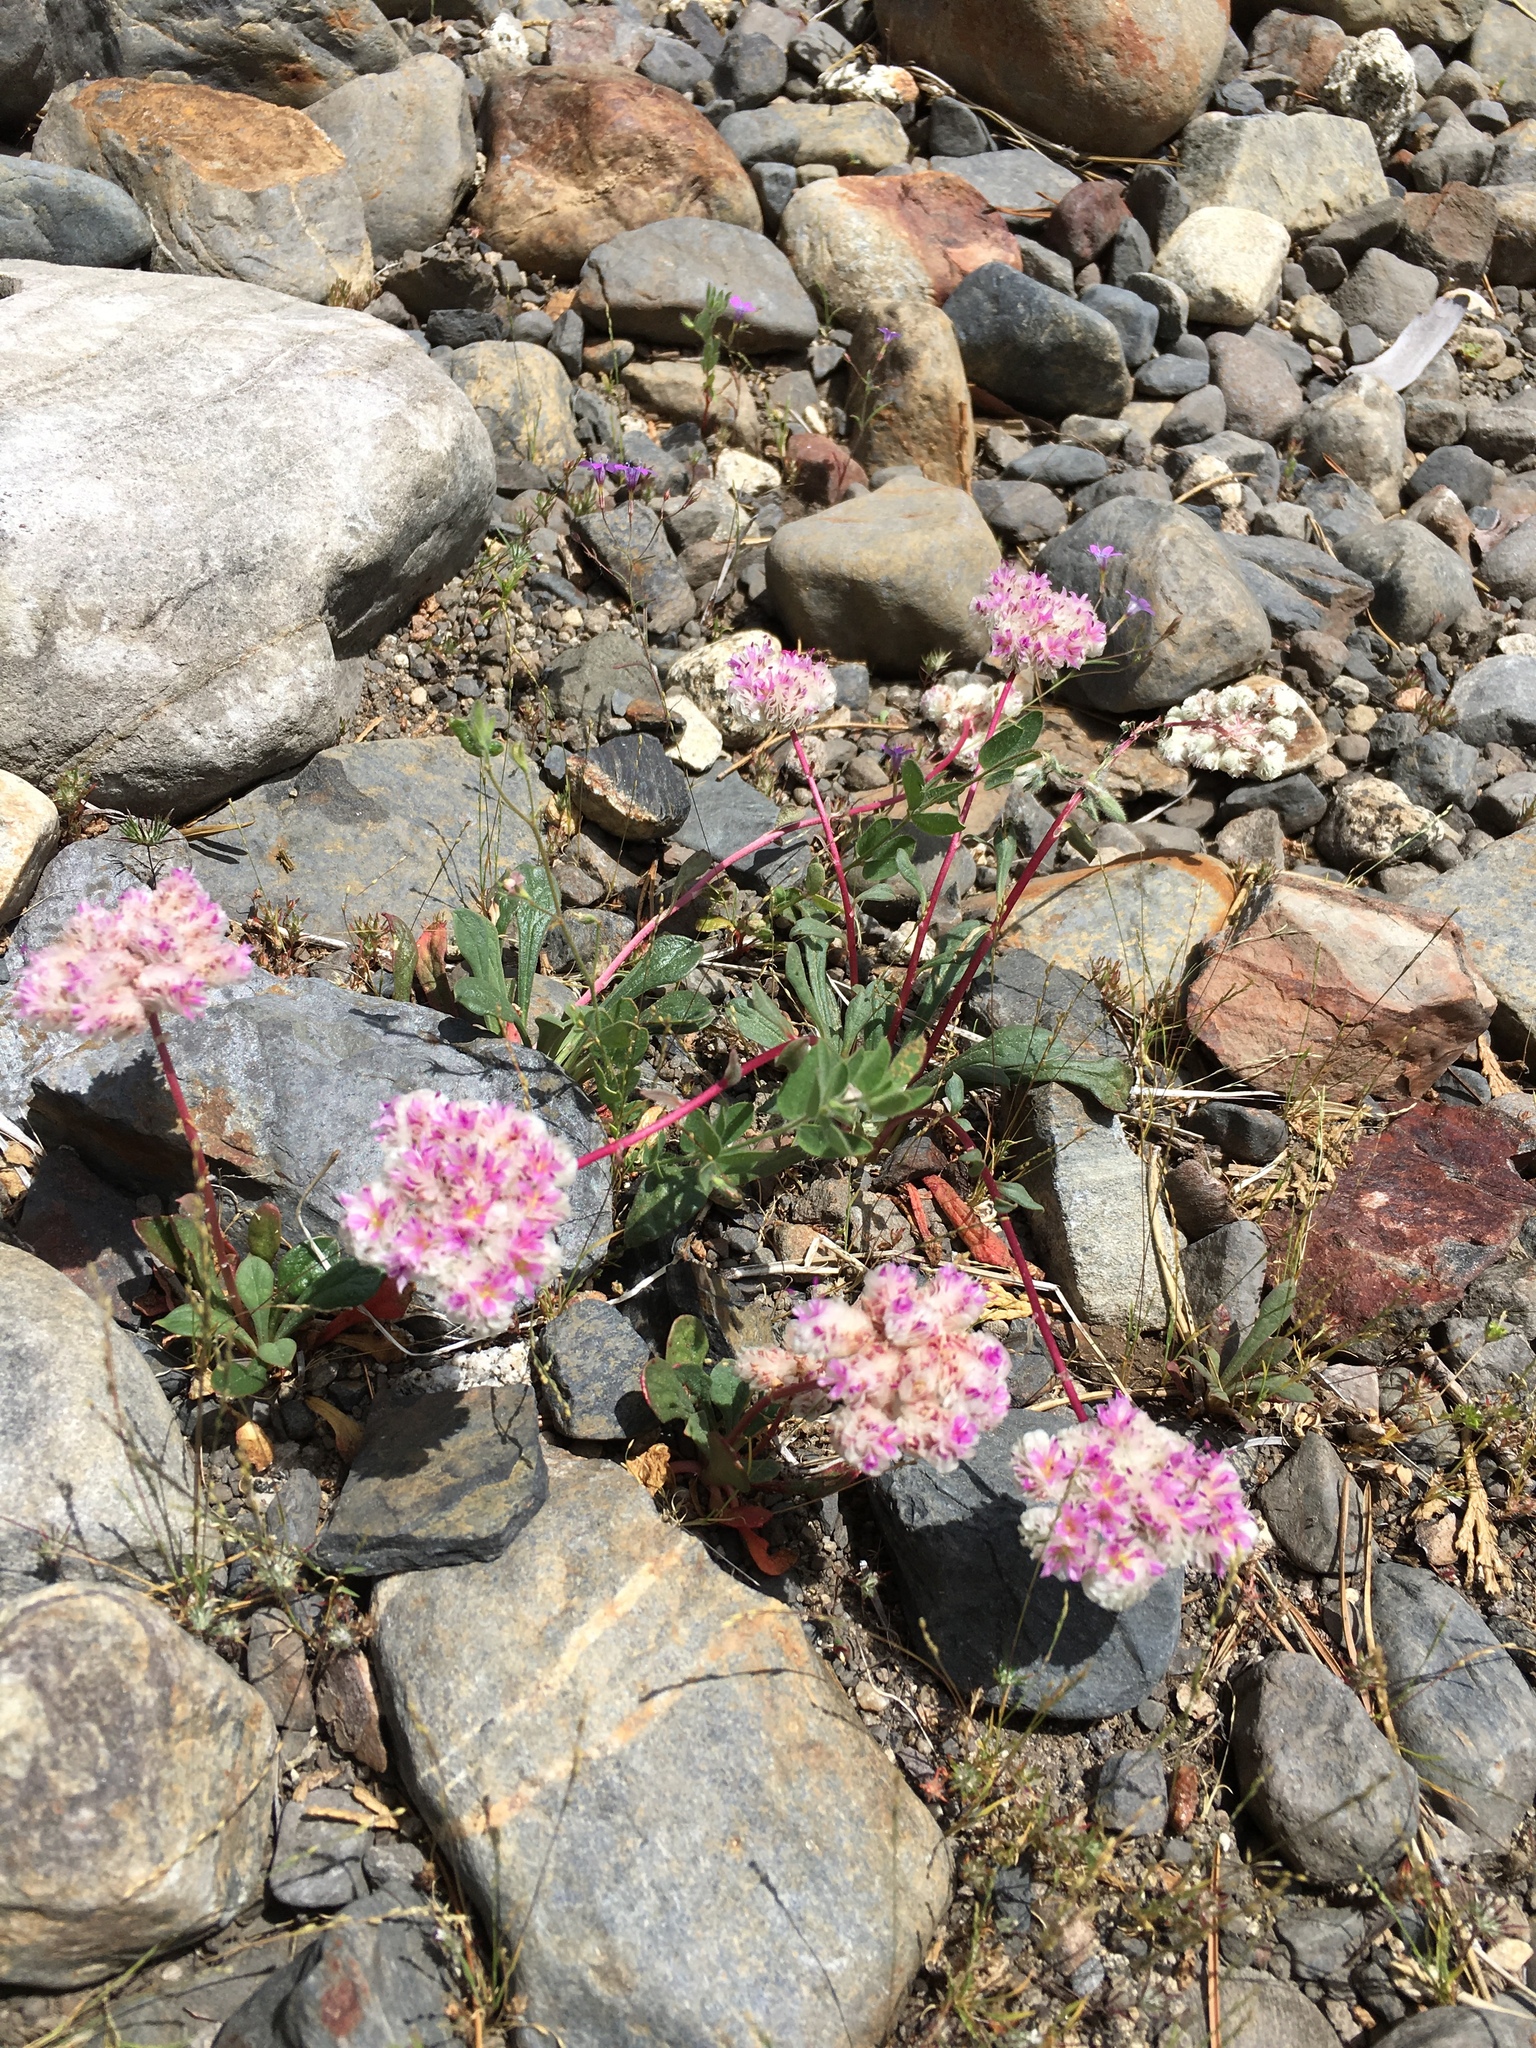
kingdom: Plantae
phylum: Tracheophyta
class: Magnoliopsida
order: Caryophyllales
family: Montiaceae
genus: Calyptridium
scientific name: Calyptridium monospermum
